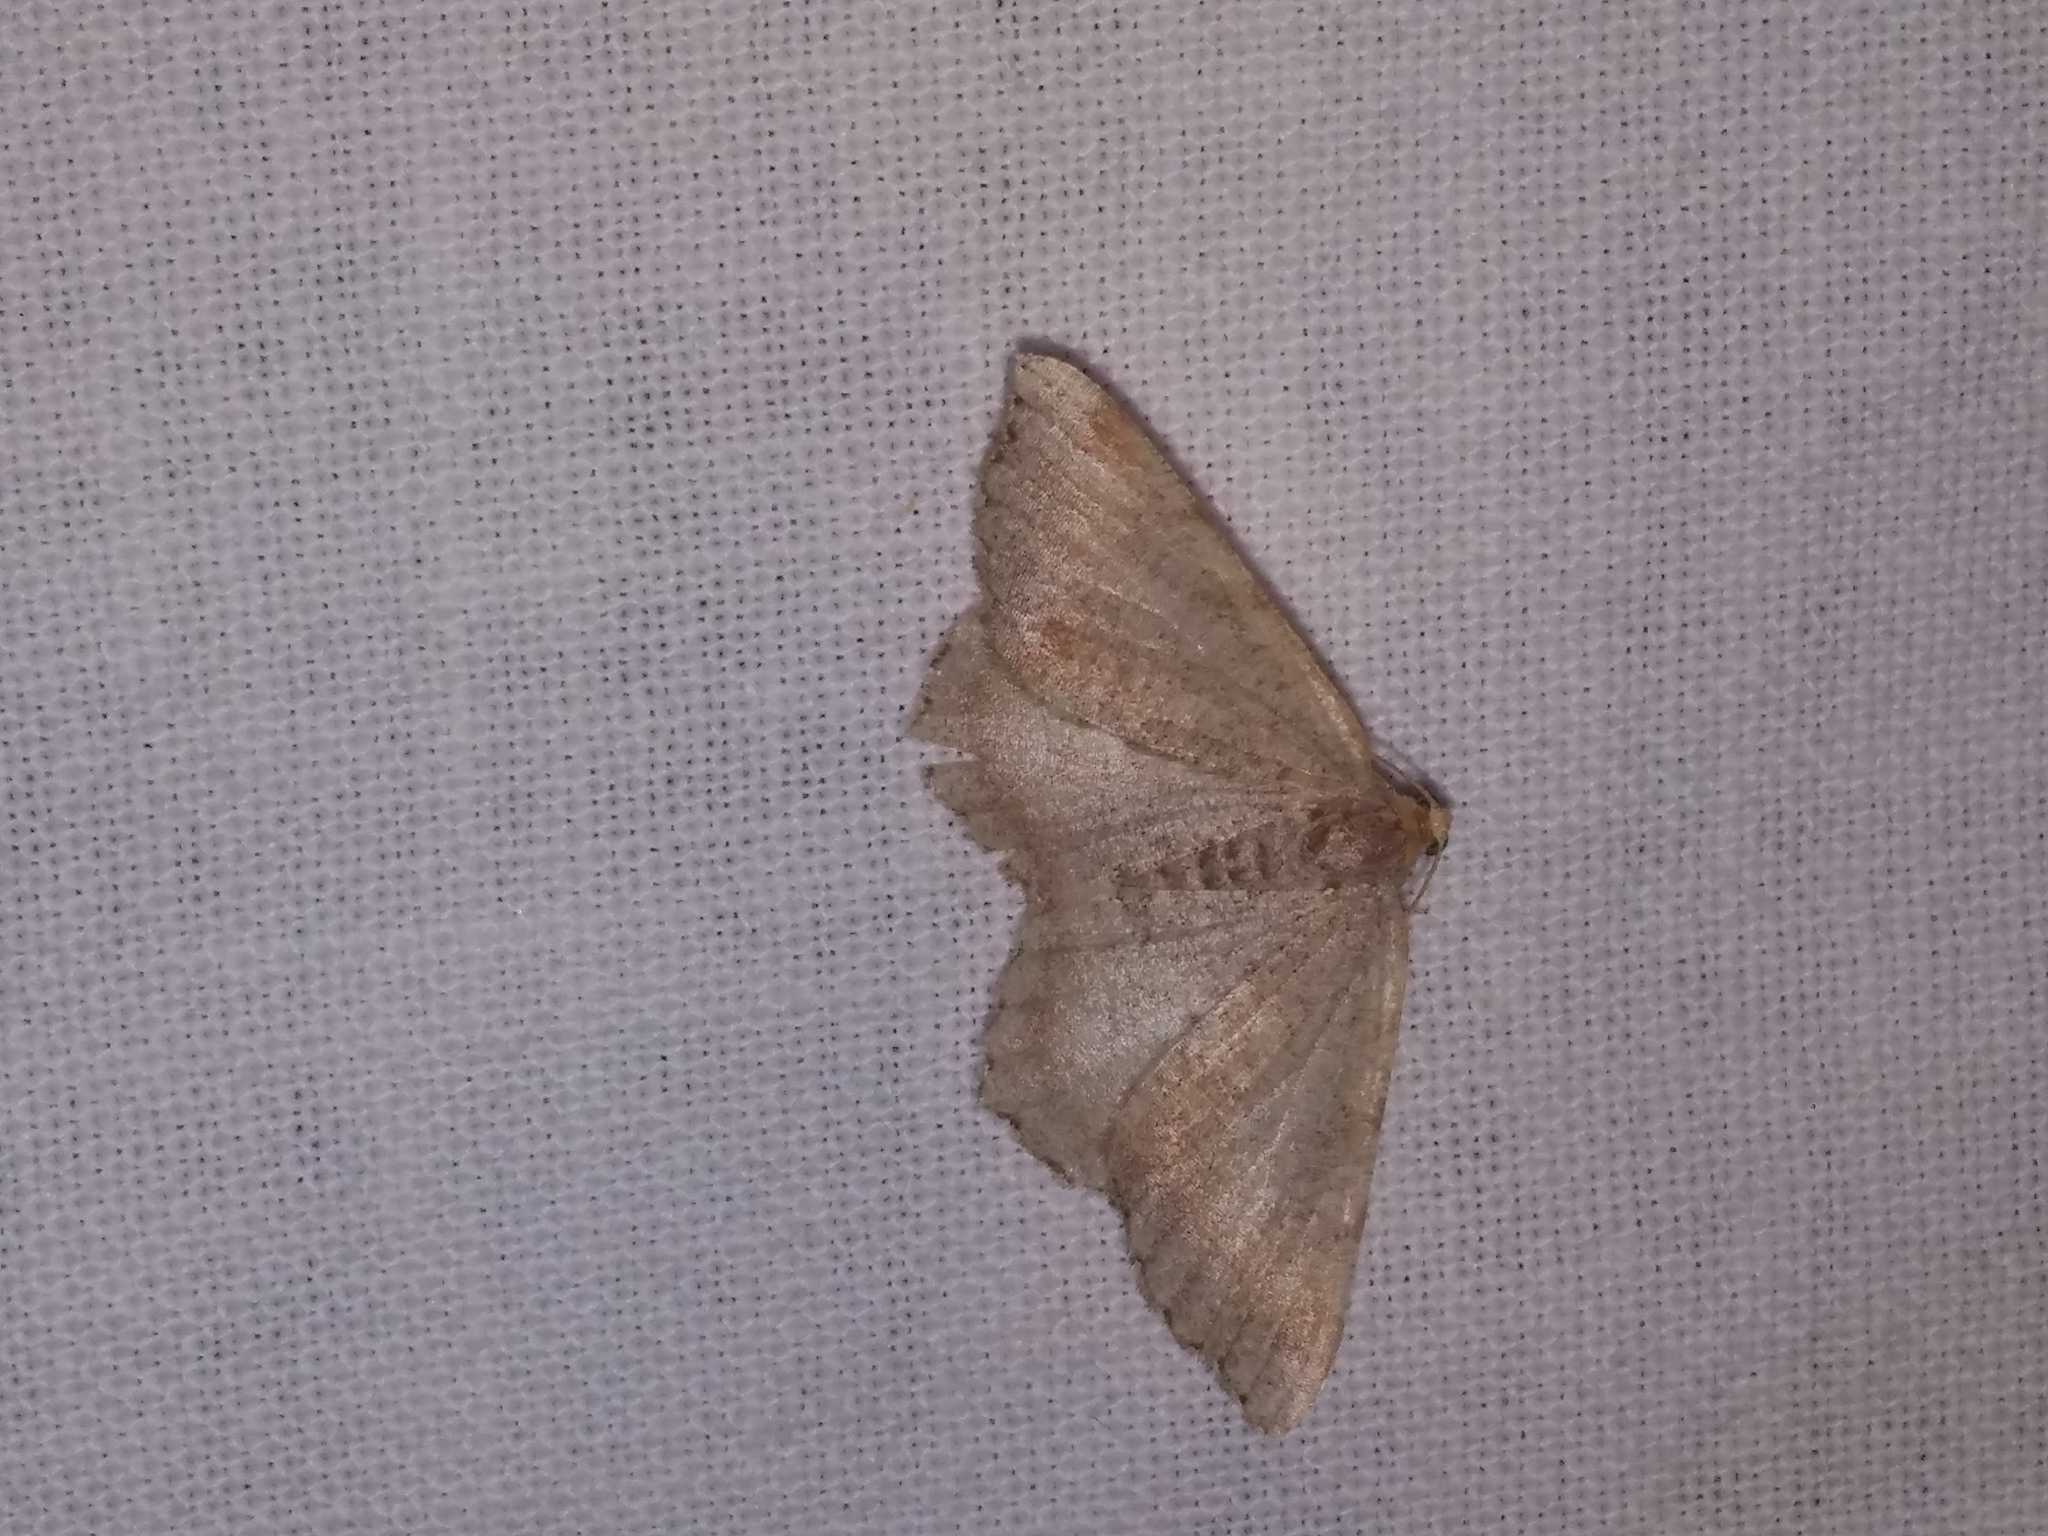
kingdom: Animalia
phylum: Arthropoda
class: Insecta
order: Lepidoptera
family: Geometridae
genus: Macaria
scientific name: Macaria transitaria
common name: Blurry chocolate angle
